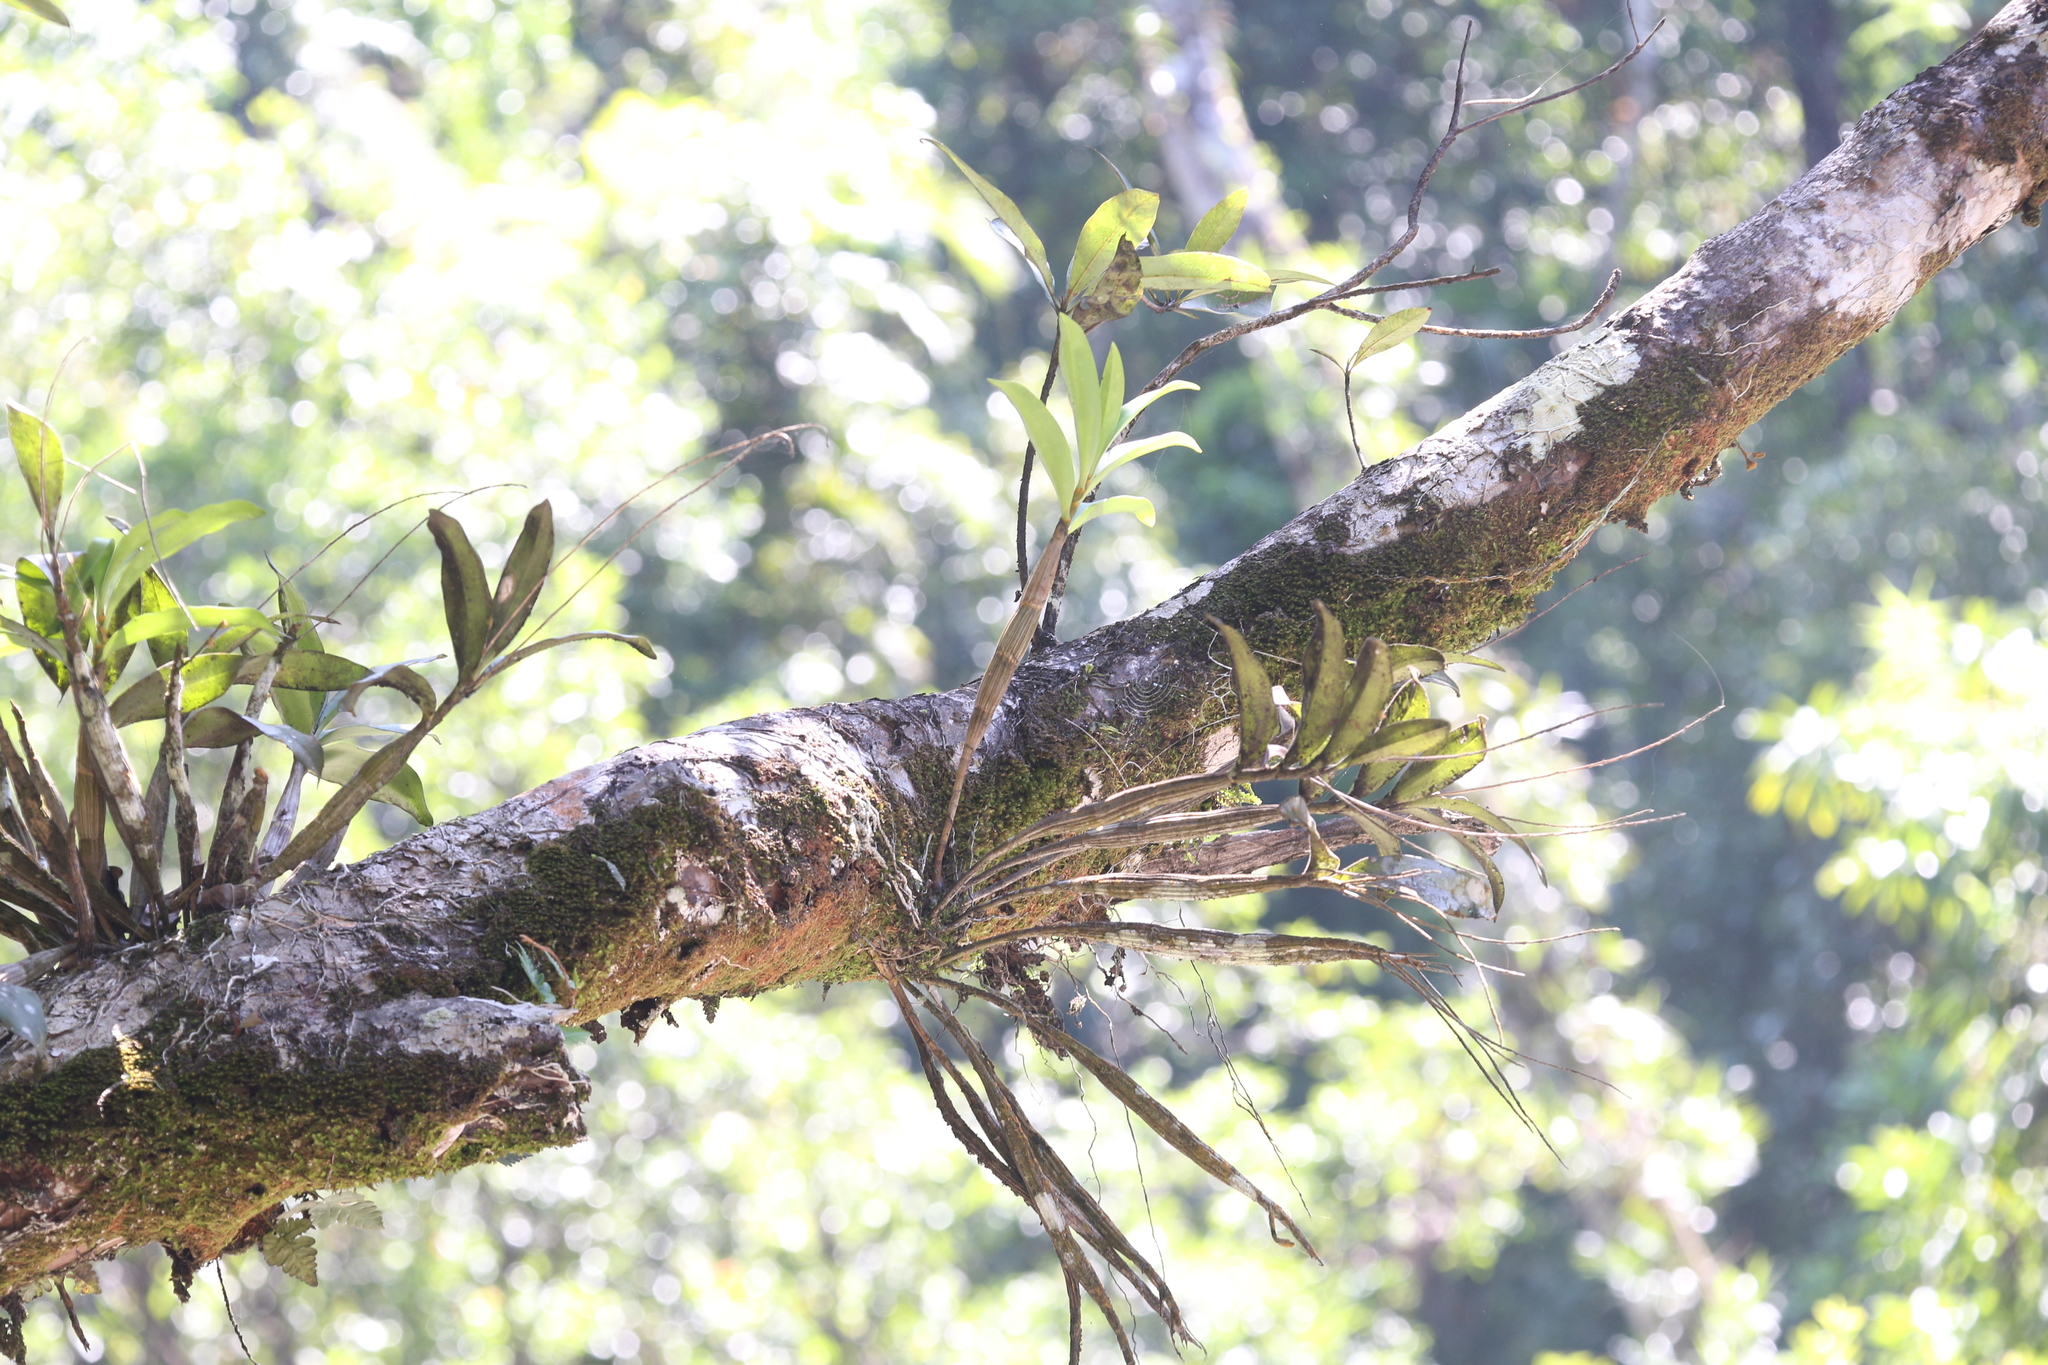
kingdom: Plantae
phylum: Tracheophyta
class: Liliopsida
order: Asparagales
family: Orchidaceae
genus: Dendrobium
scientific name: Dendrobium jonesii
